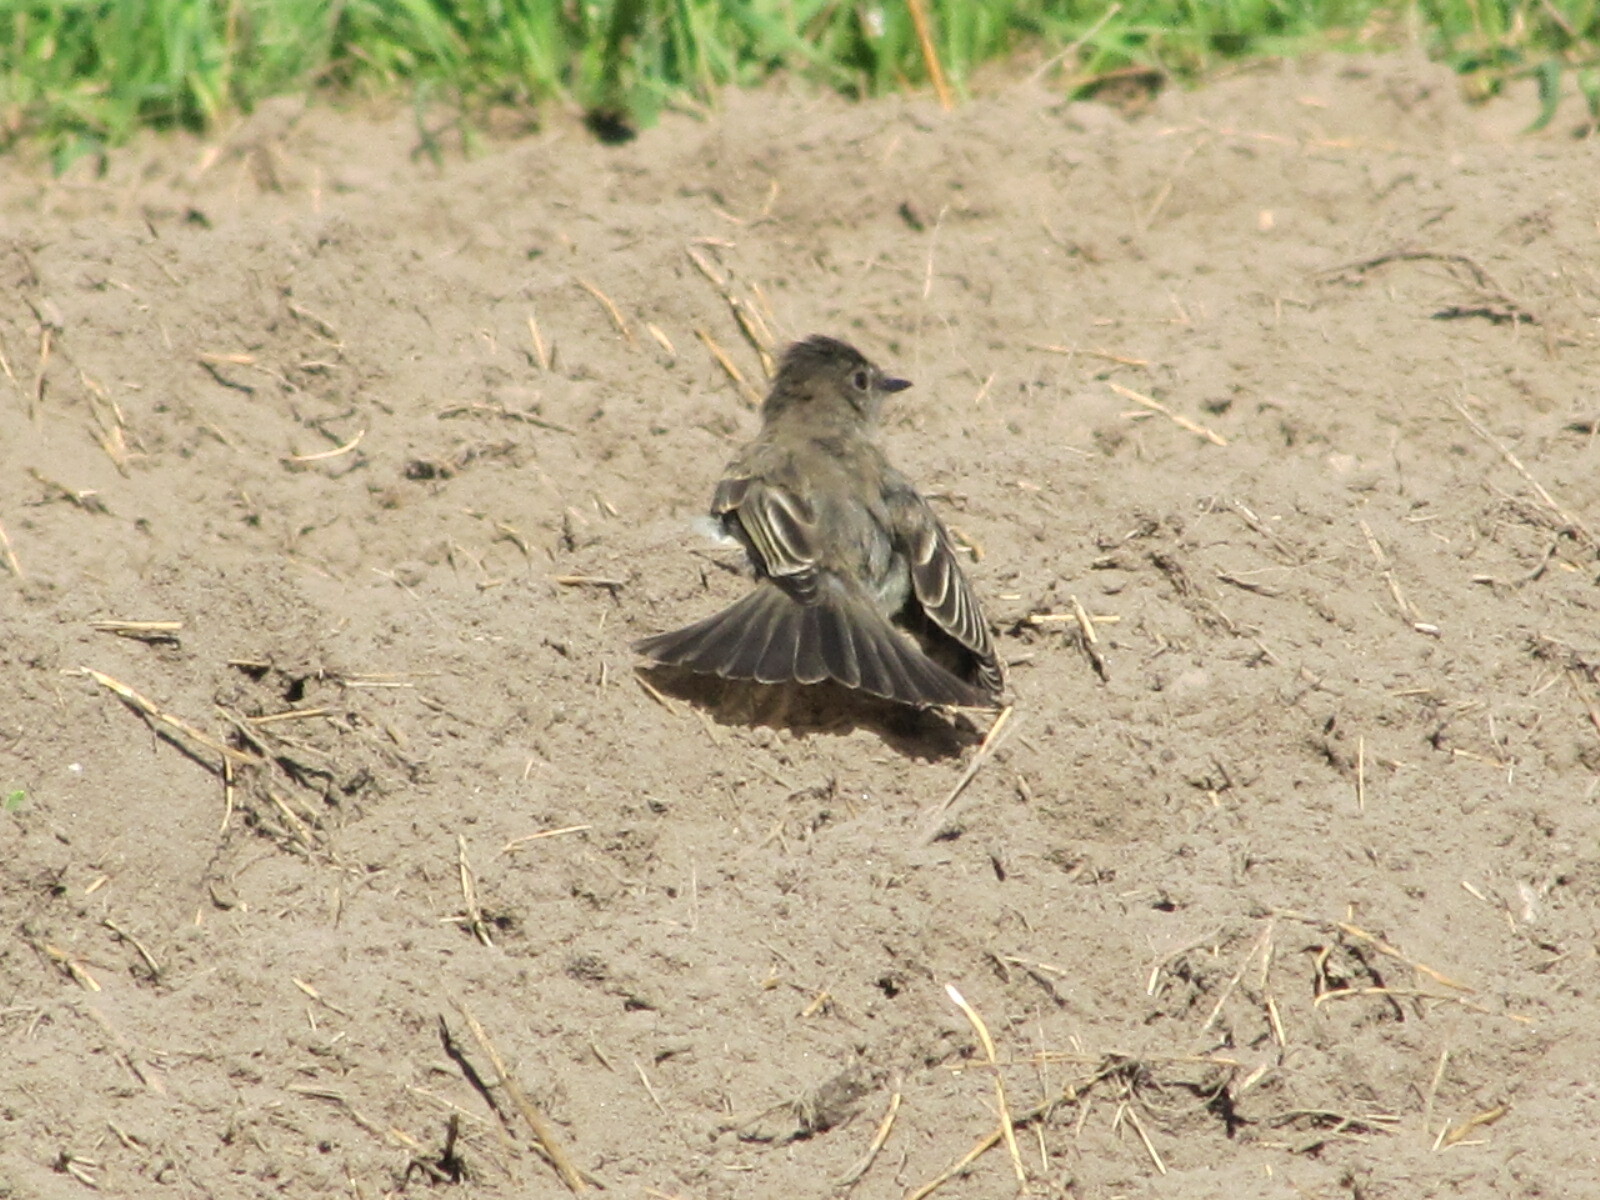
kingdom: Animalia
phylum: Chordata
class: Aves
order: Passeriformes
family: Tyrannidae
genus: Sayornis
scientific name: Sayornis phoebe
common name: Eastern phoebe
